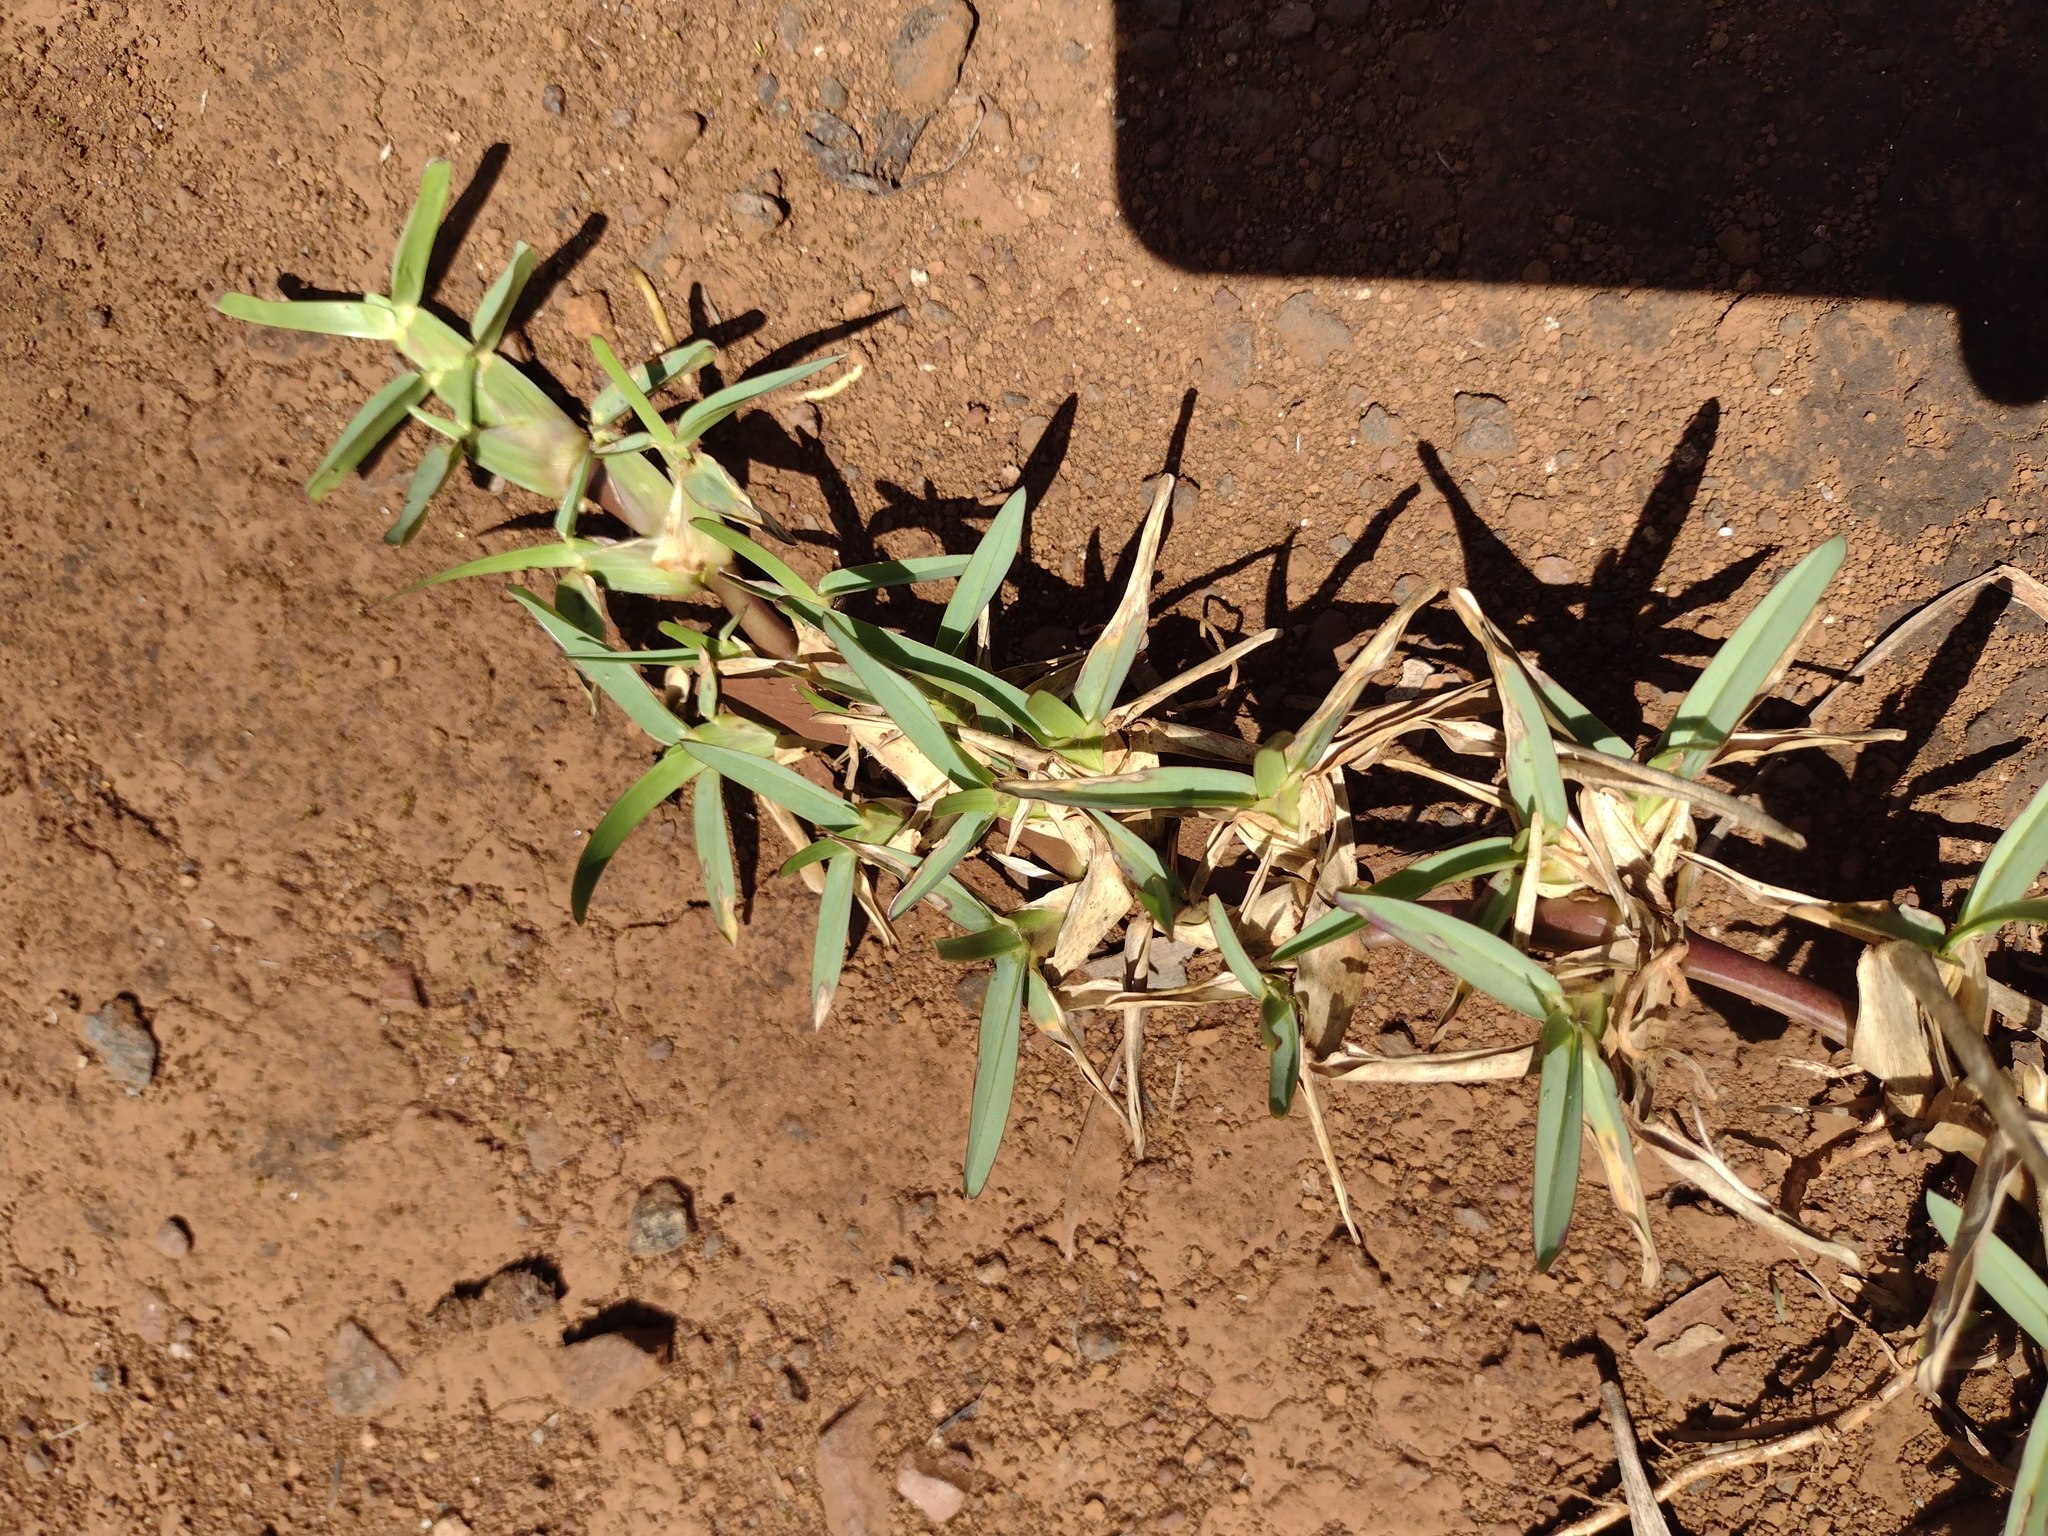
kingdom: Plantae
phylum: Tracheophyta
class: Liliopsida
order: Poales
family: Poaceae
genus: Stenotaphrum
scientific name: Stenotaphrum secundatum
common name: St. augustine grass
